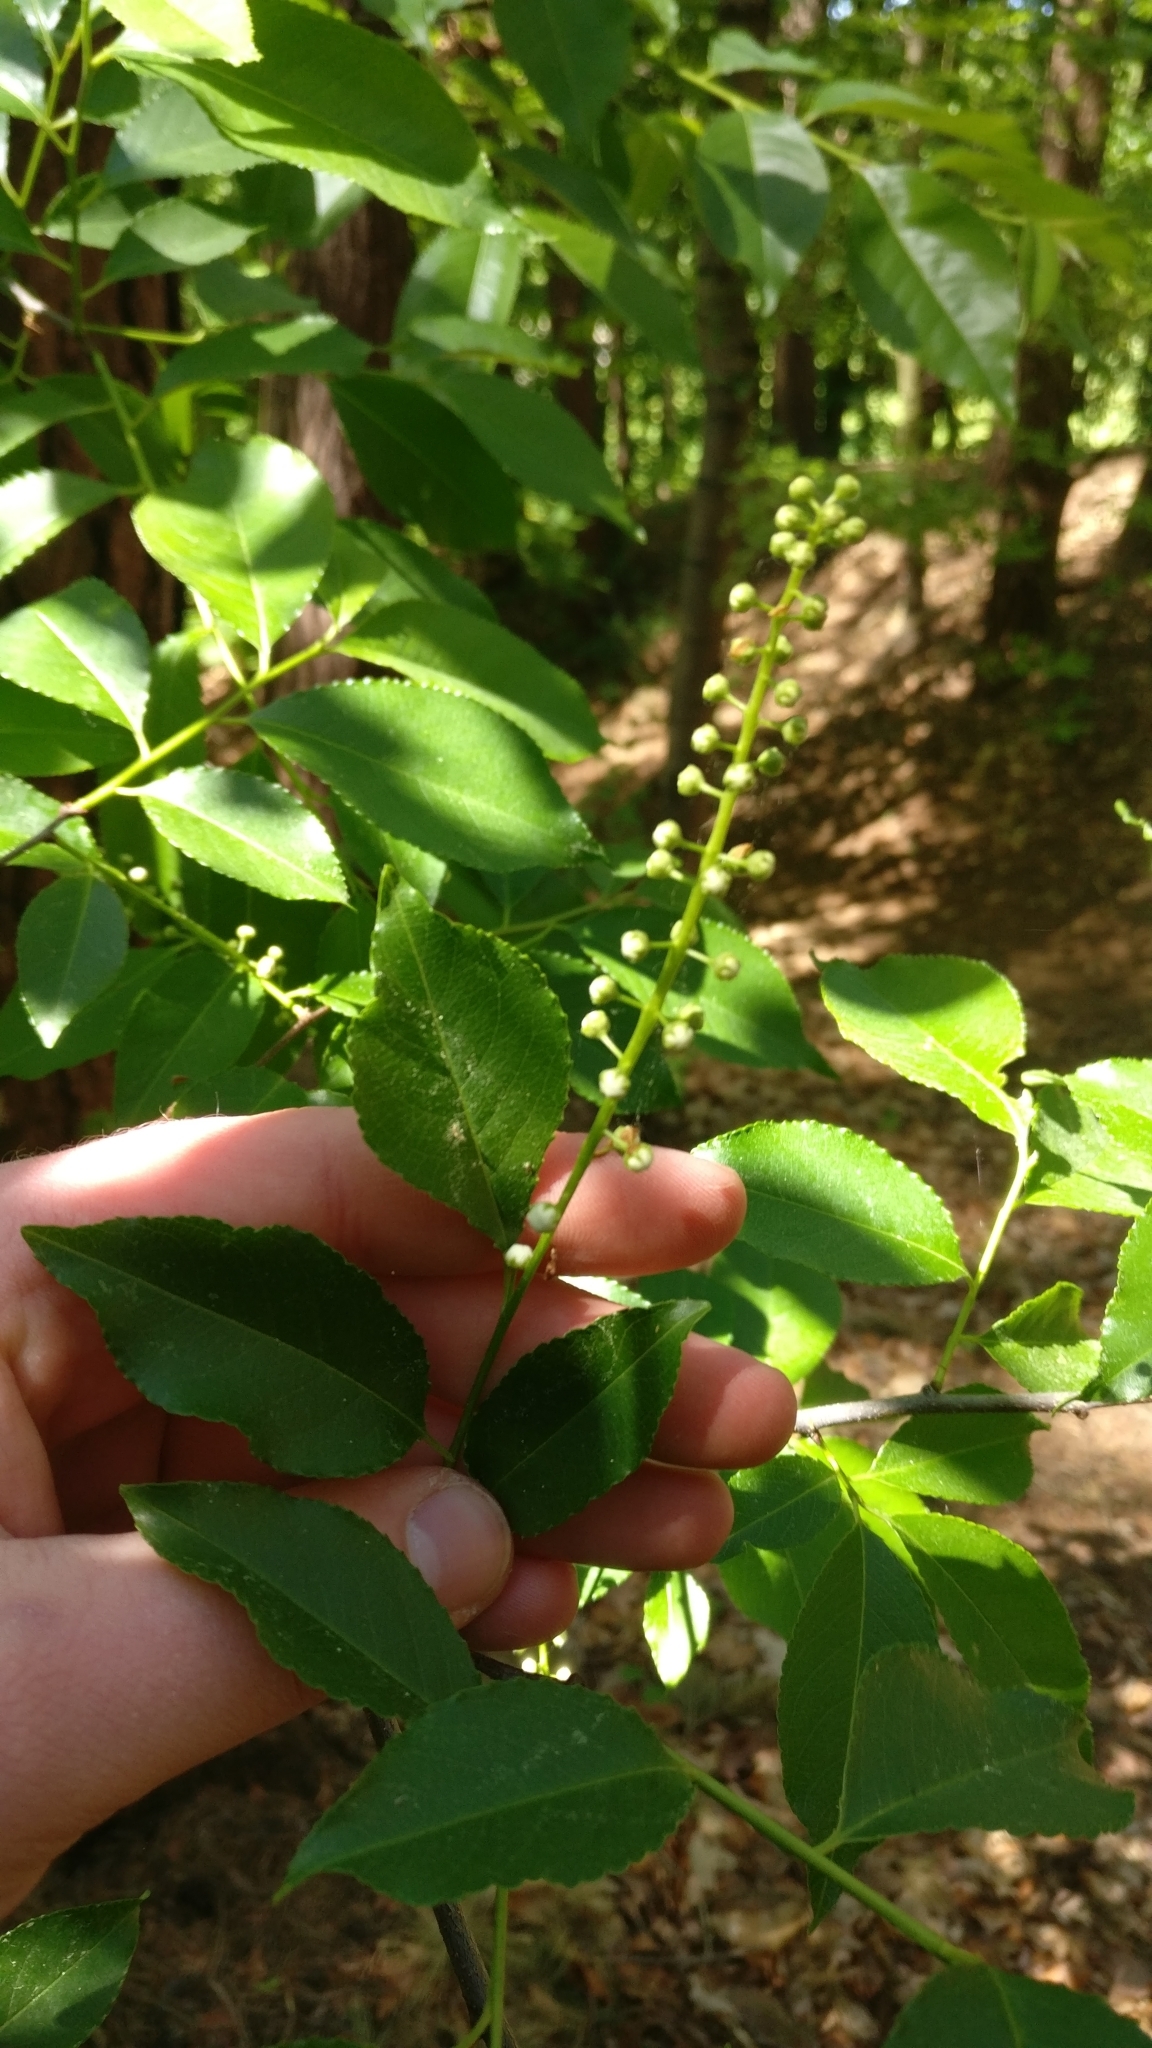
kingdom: Plantae
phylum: Tracheophyta
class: Magnoliopsida
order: Rosales
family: Rosaceae
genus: Prunus
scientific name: Prunus serotina
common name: Black cherry
